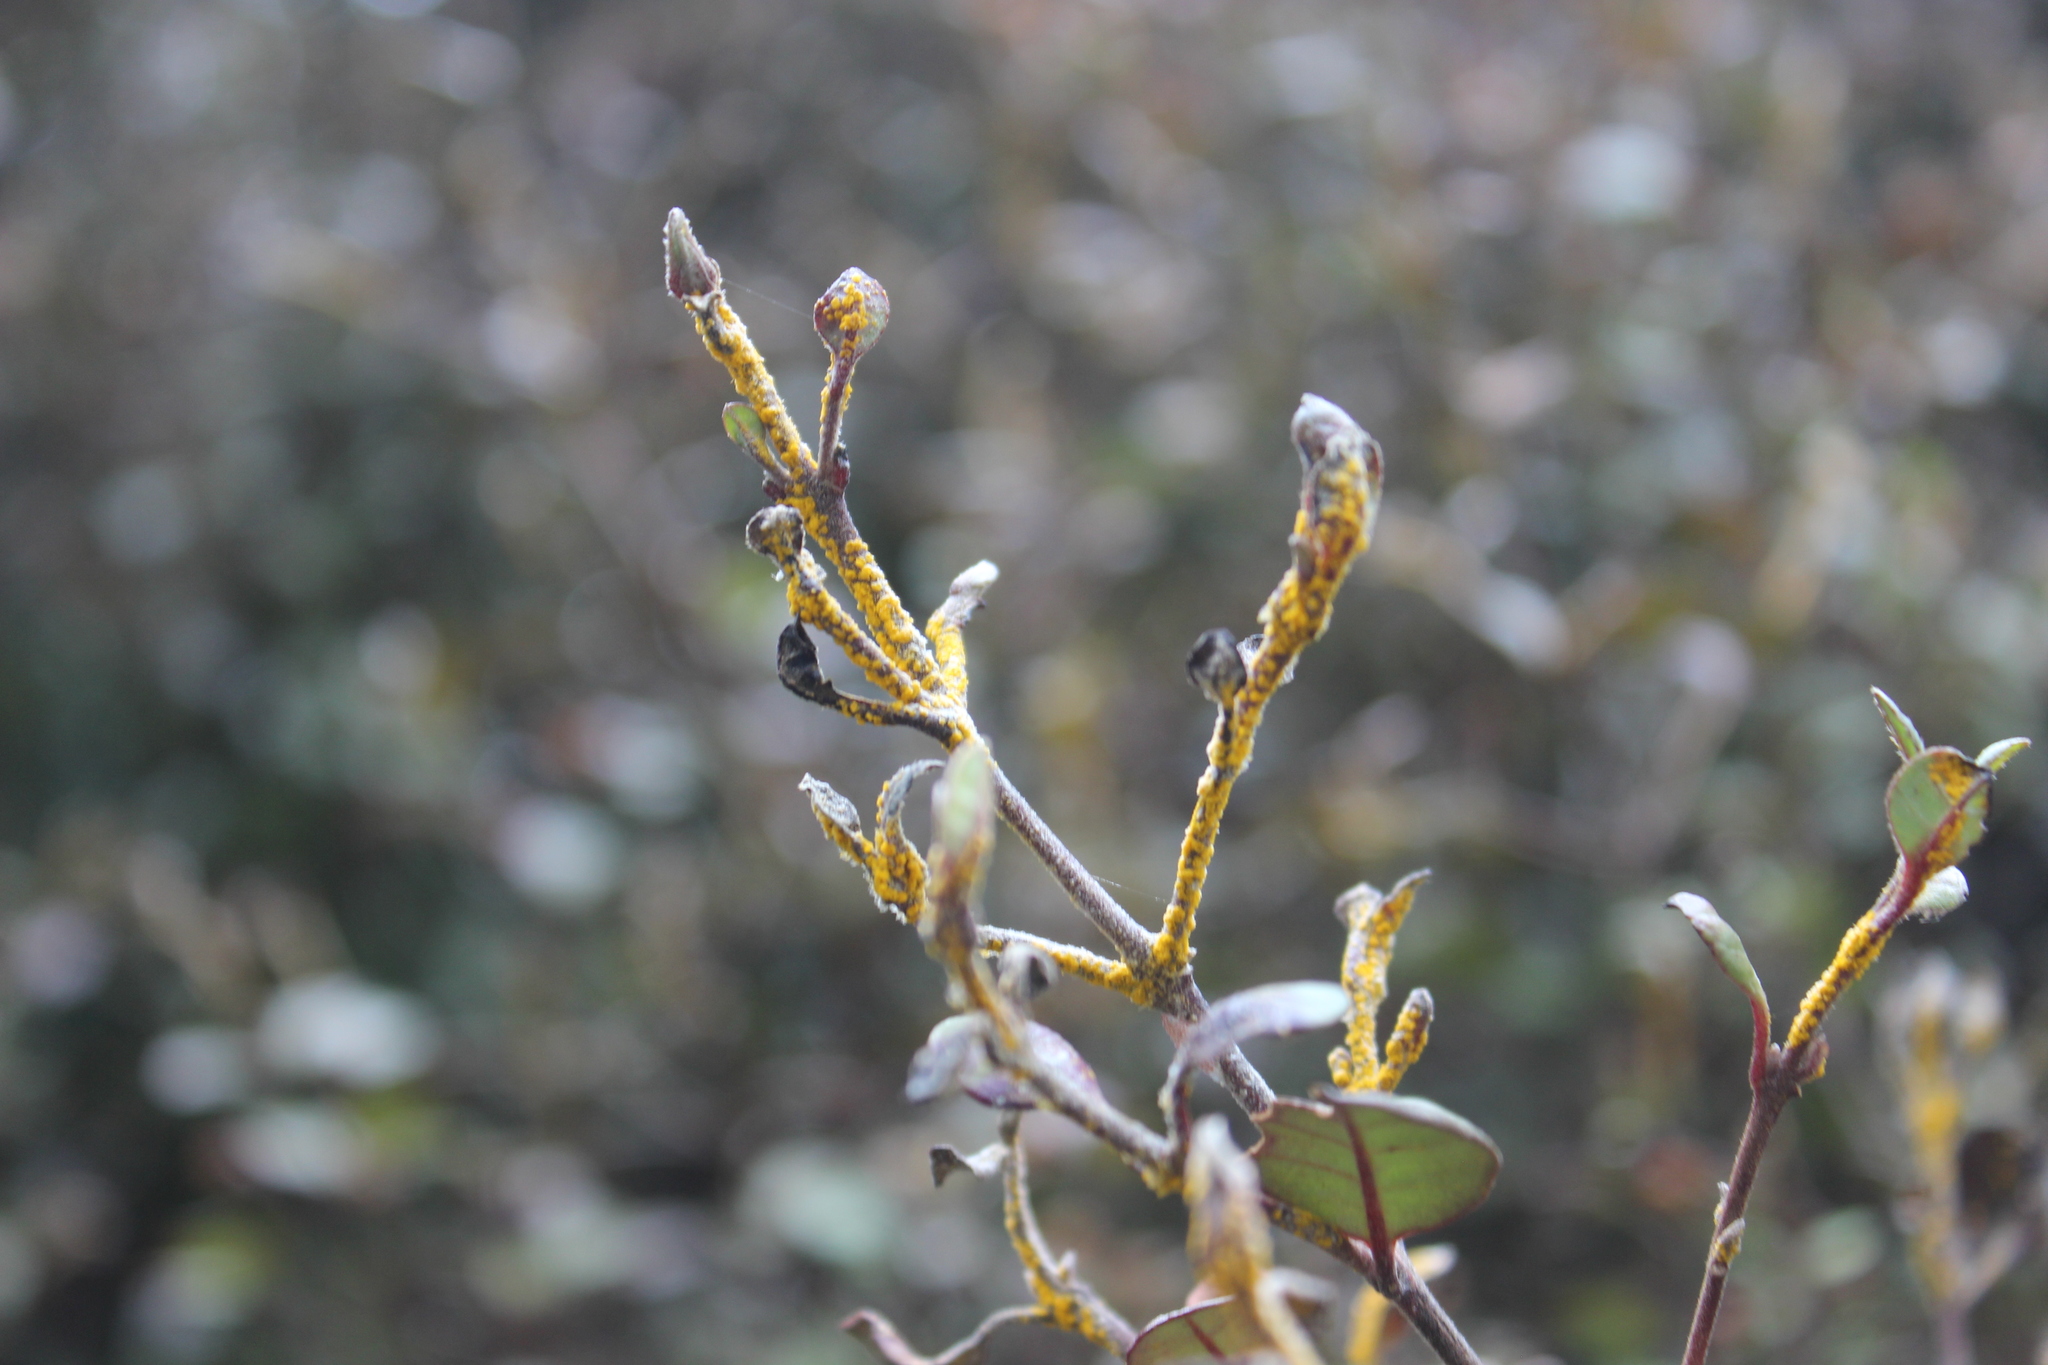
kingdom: Fungi
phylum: Basidiomycota
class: Pucciniomycetes
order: Pucciniales
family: Sphaerophragmiaceae
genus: Austropuccinia
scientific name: Austropuccinia psidii
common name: Myrtle rust
